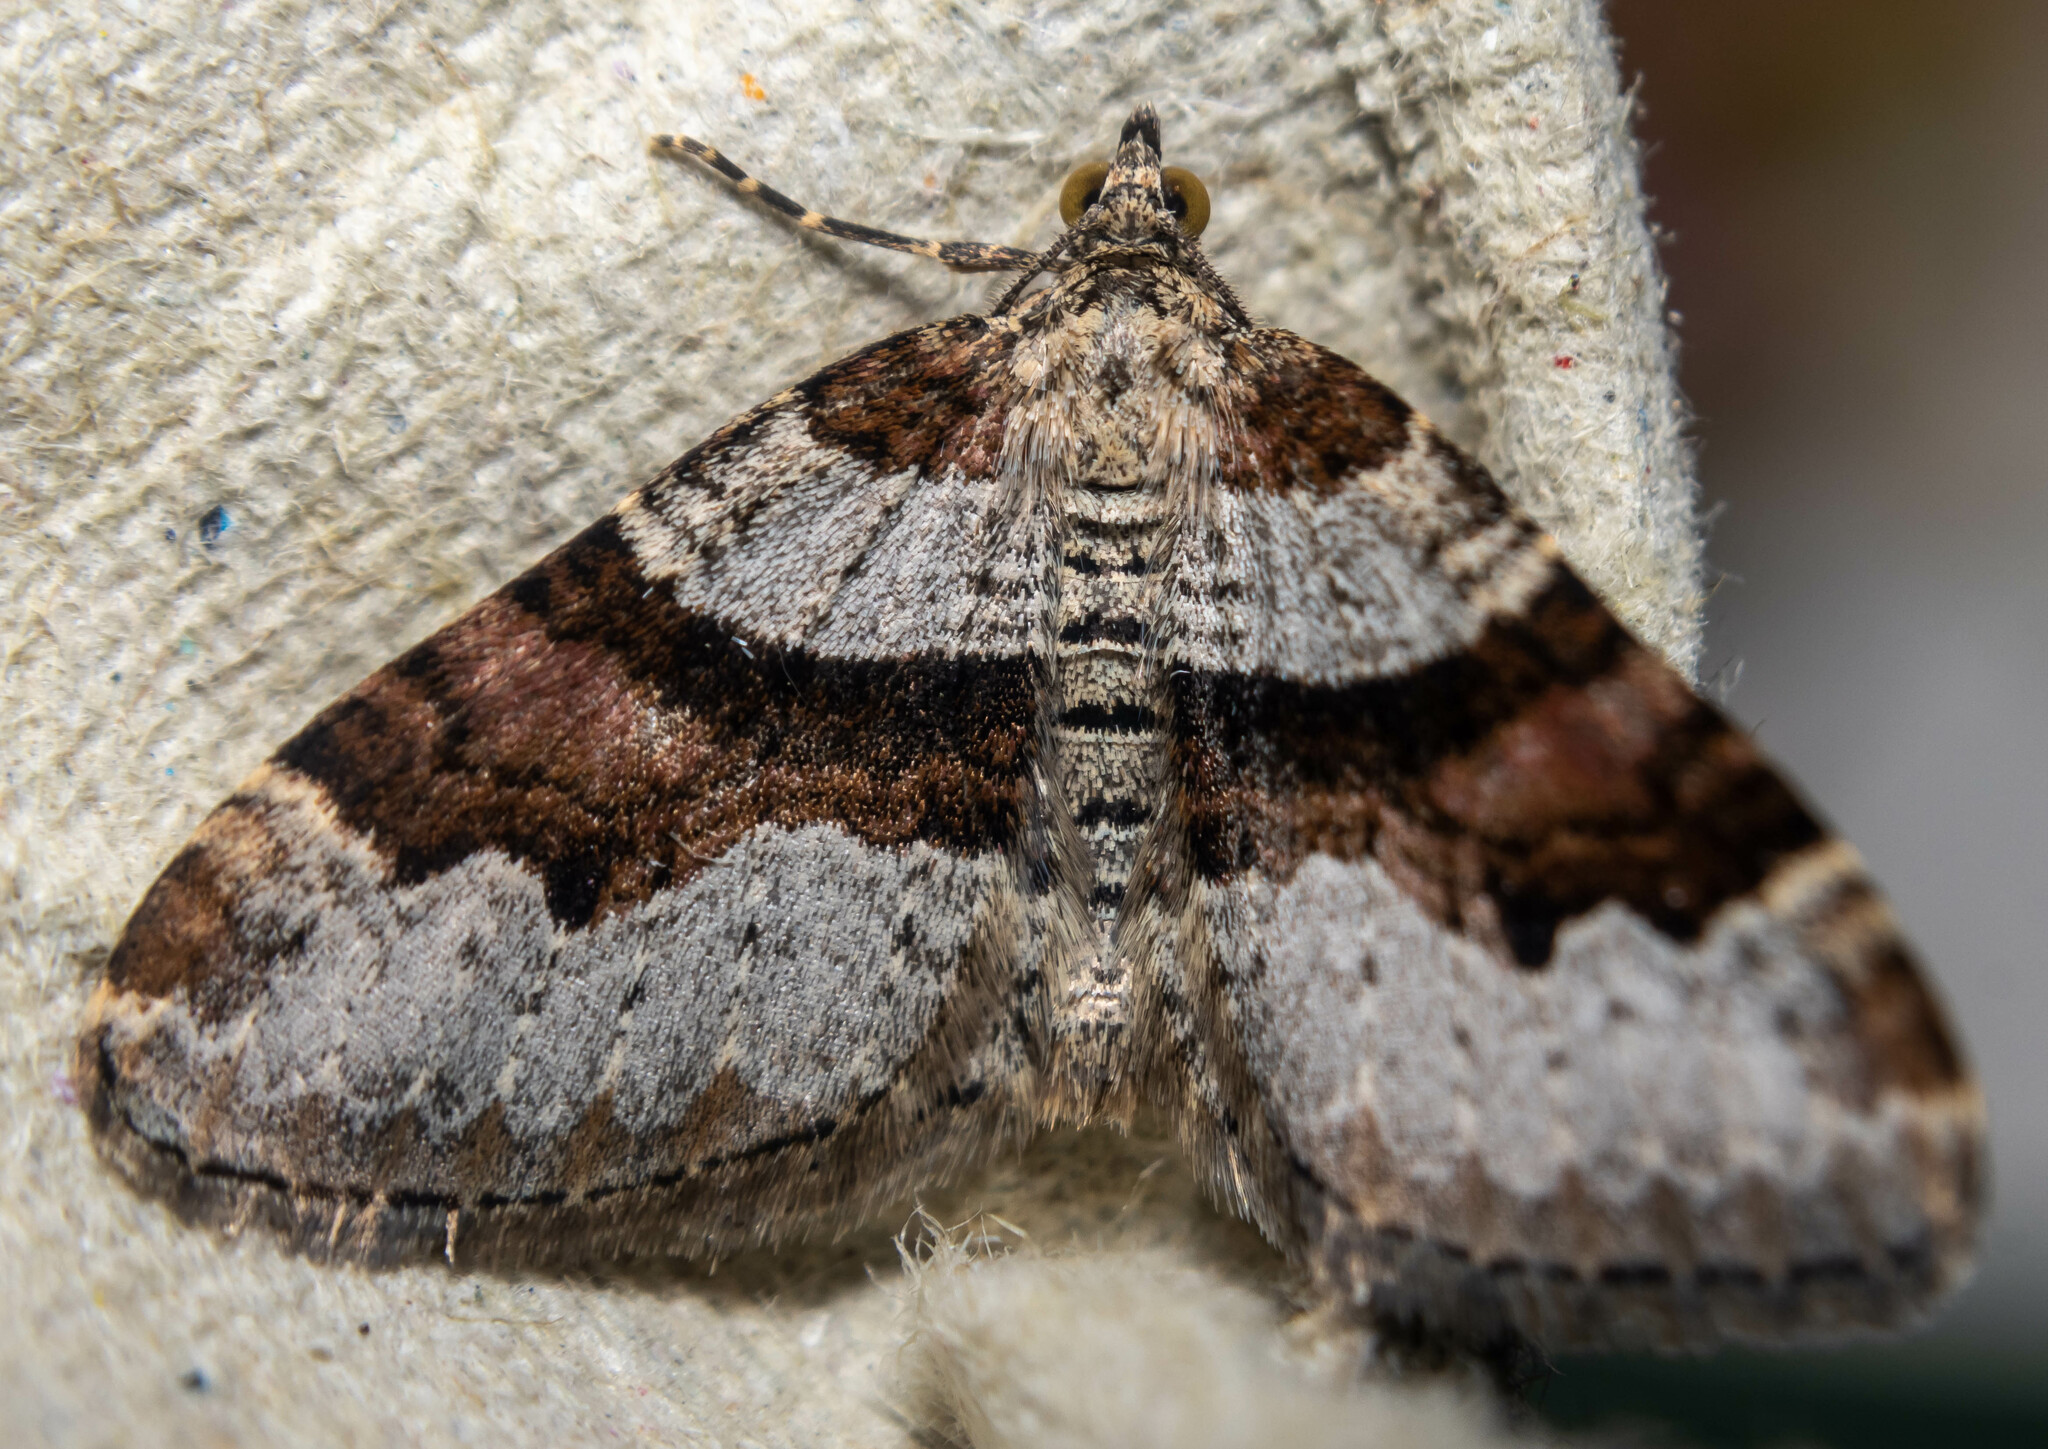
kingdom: Animalia
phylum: Arthropoda
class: Insecta
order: Lepidoptera
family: Geometridae
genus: Xanthorhoe
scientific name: Xanthorhoe designata
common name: Flame carpet
